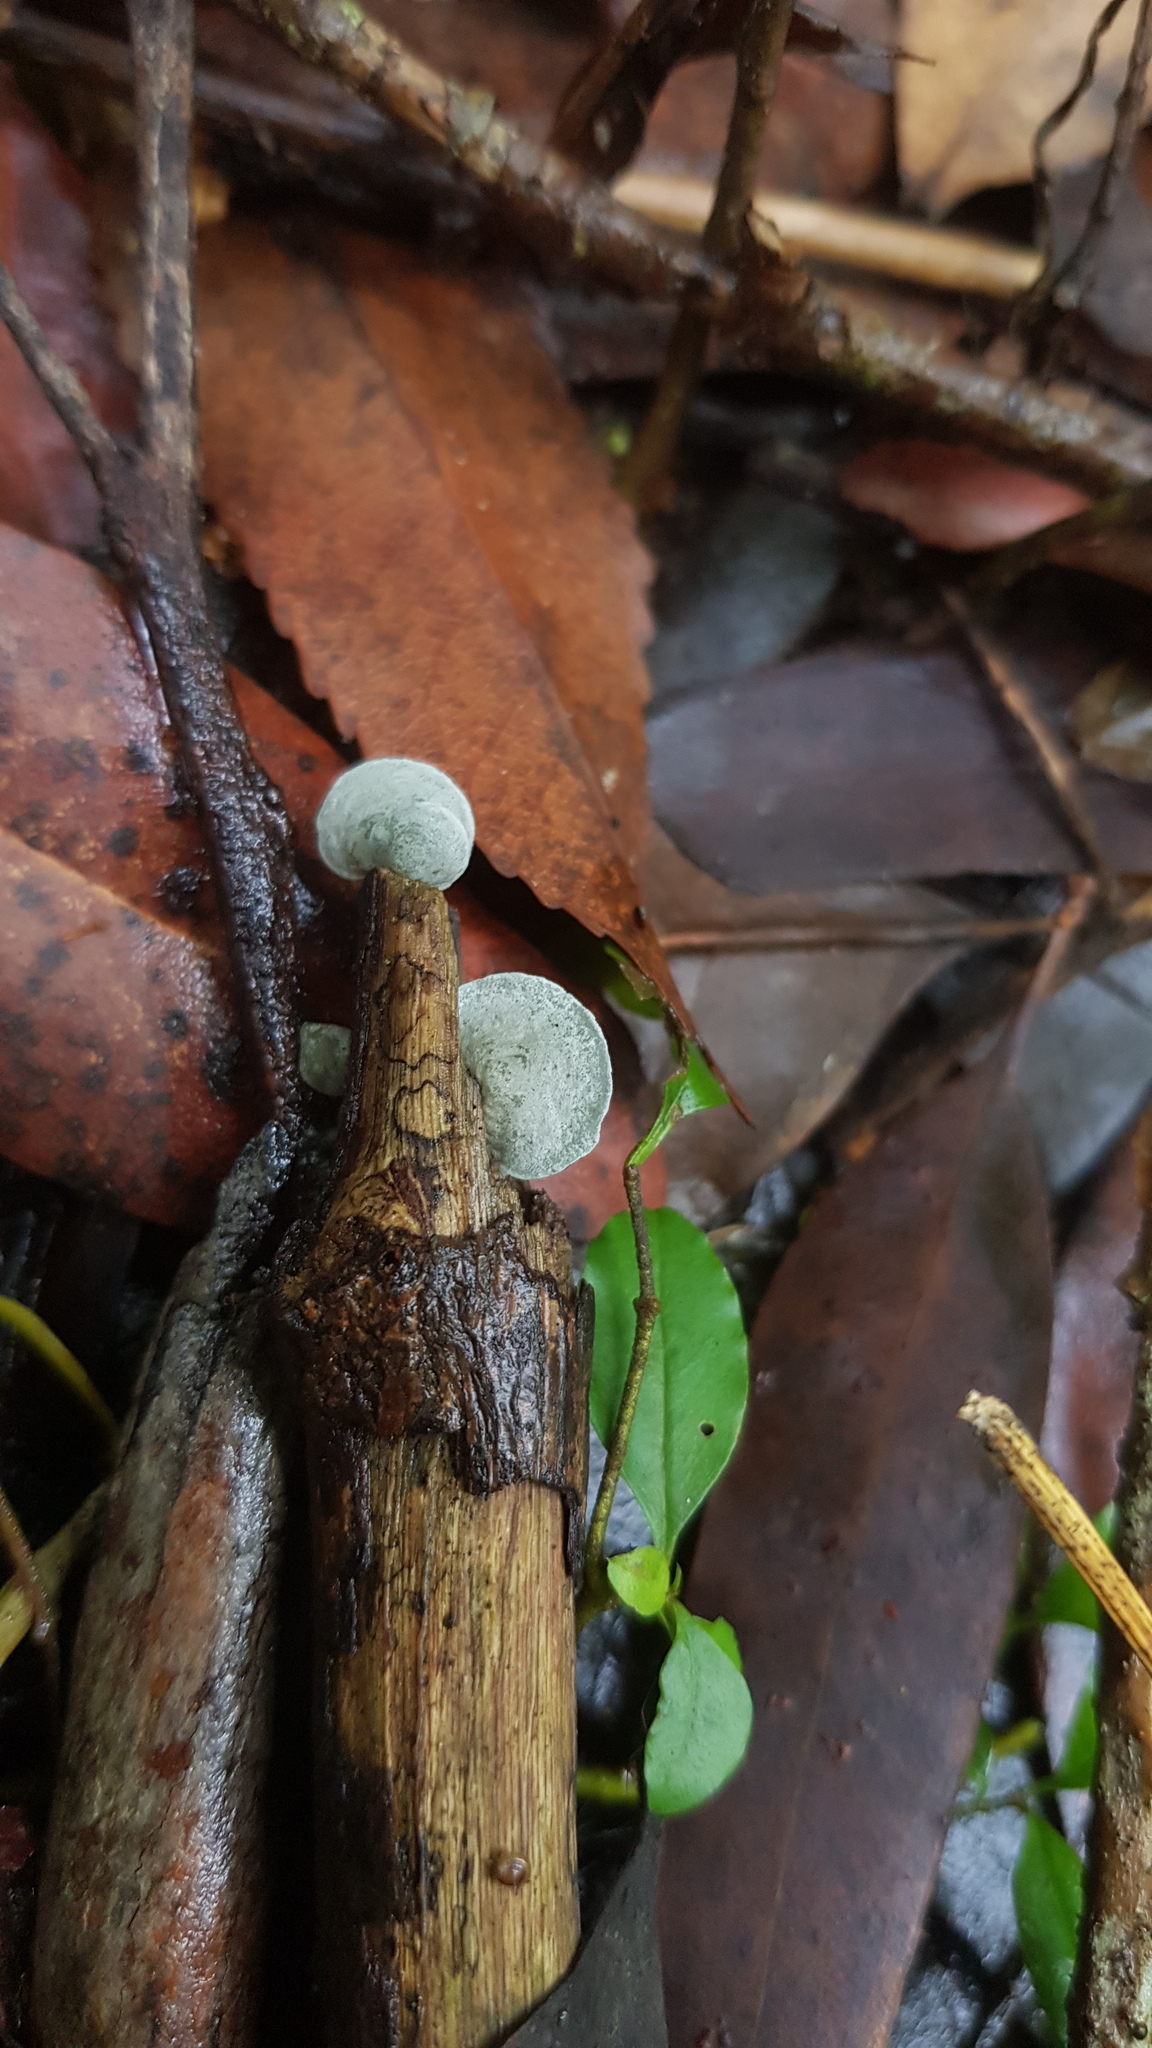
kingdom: Fungi
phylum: Basidiomycota
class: Agaricomycetes
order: Agaricales
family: Marasmiaceae
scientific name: Marasmiaceae
